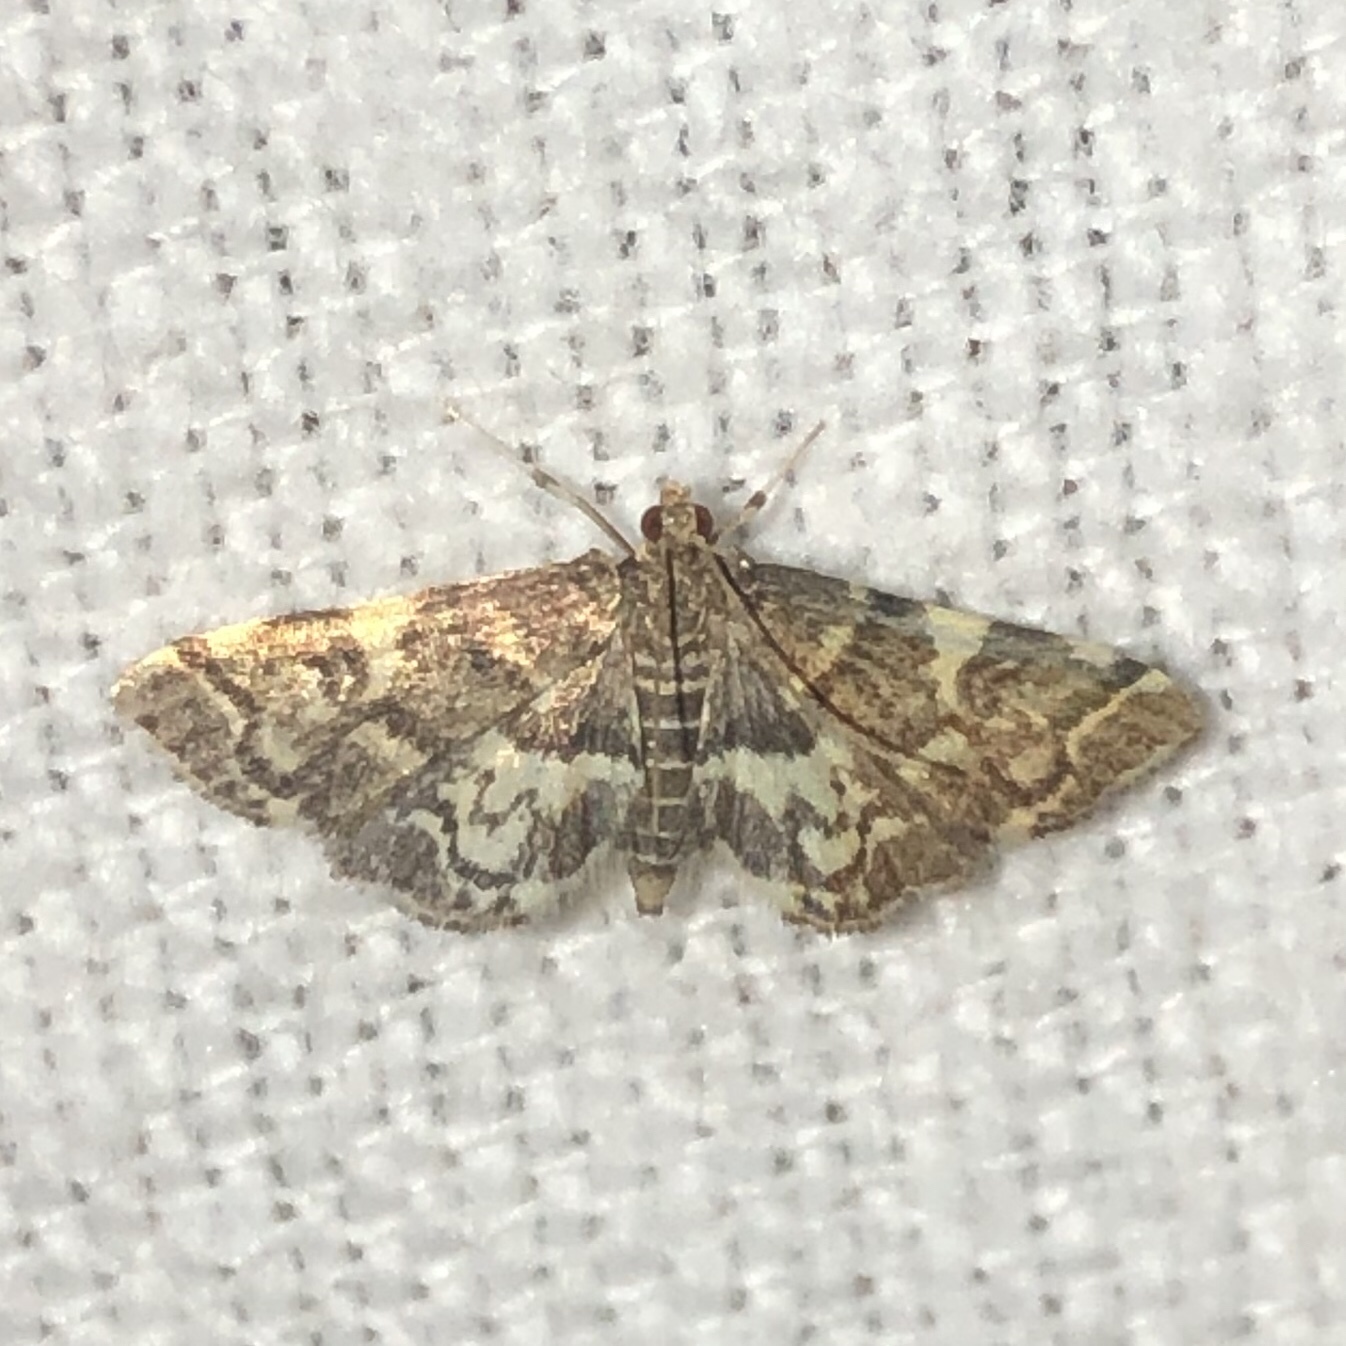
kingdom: Animalia
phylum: Arthropoda
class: Insecta
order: Lepidoptera
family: Crambidae
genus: Anageshna
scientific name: Anageshna primordialis
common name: Yellow-spotted webworm moth
